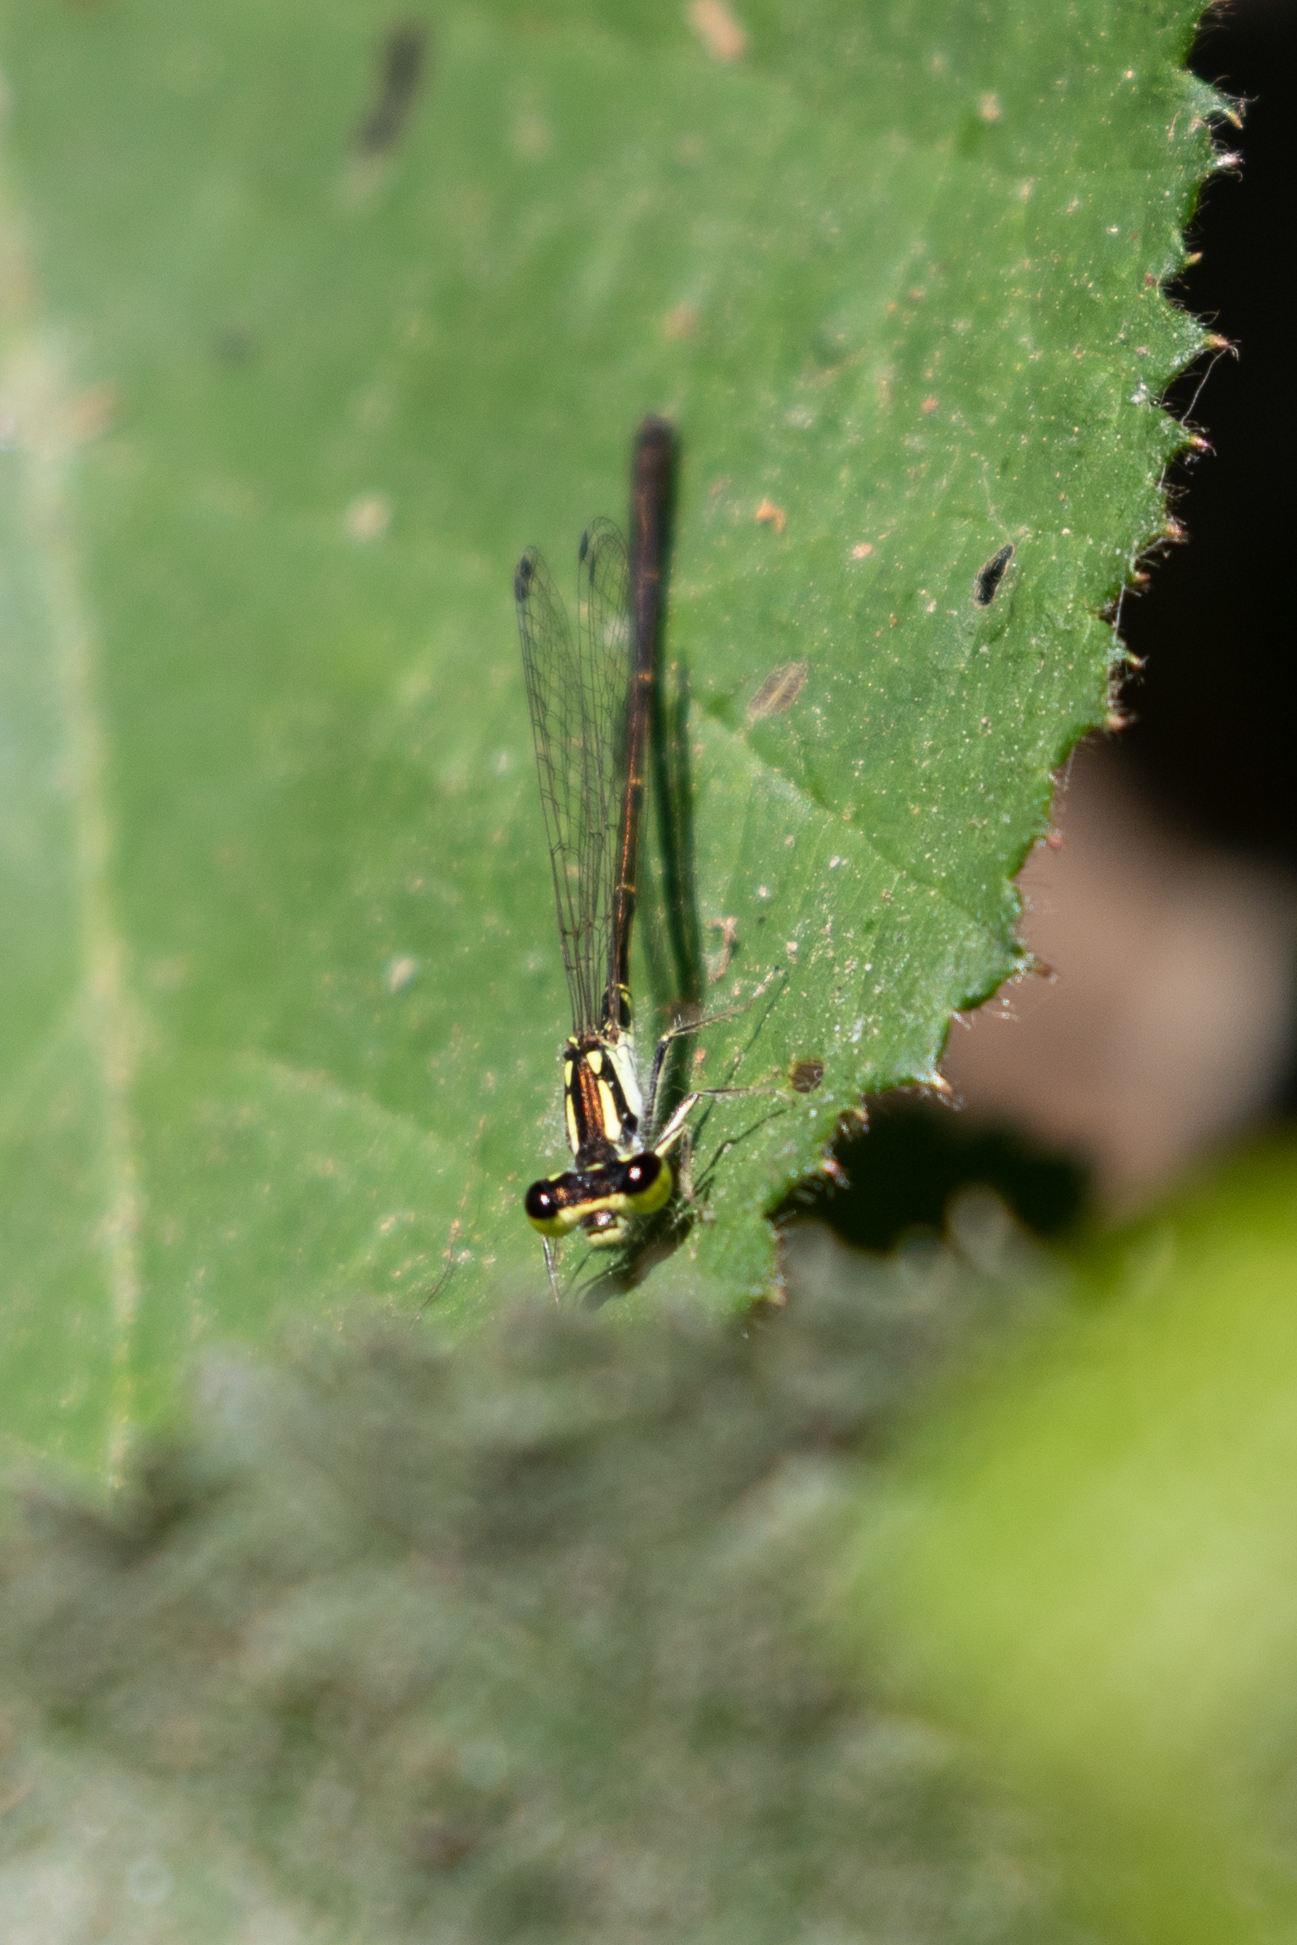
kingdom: Animalia
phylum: Arthropoda
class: Insecta
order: Odonata
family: Coenagrionidae
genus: Ischnura
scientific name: Ischnura posita
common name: Fragile forktail
